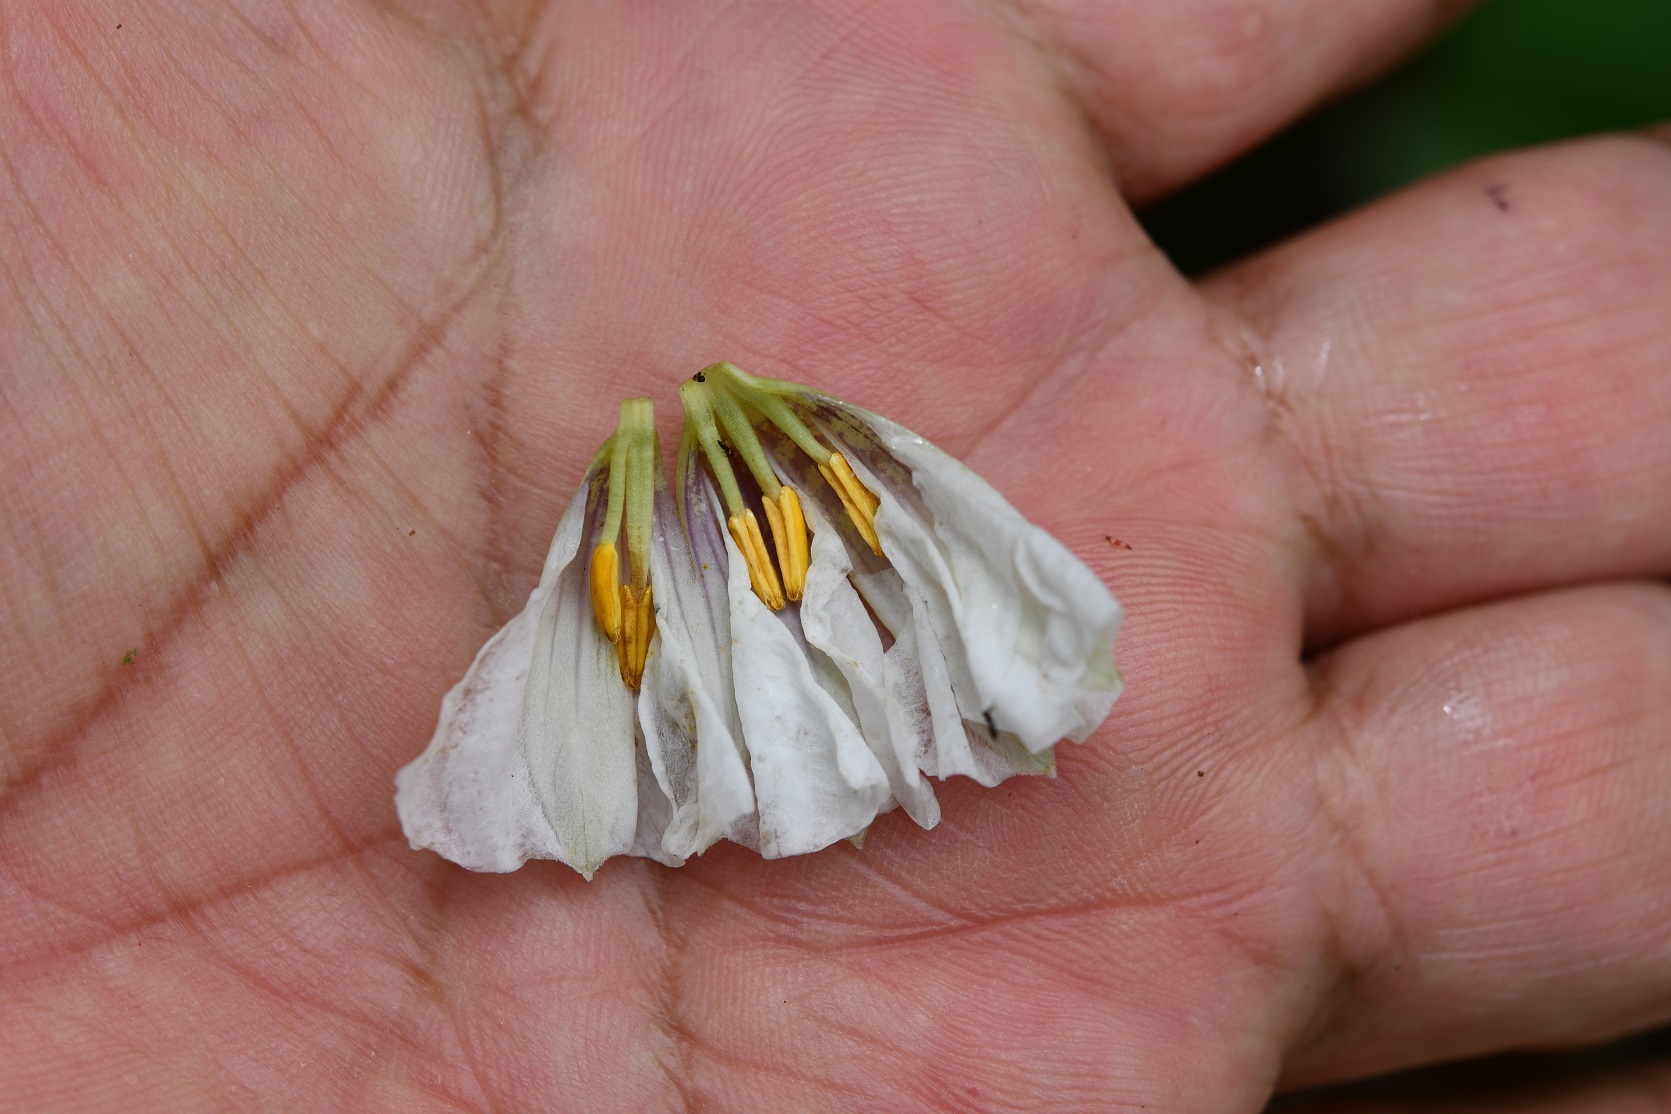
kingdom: Plantae
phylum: Tracheophyta
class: Magnoliopsida
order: Solanales
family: Solanaceae
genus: Lycianthes
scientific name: Lycianthes ciliolata
